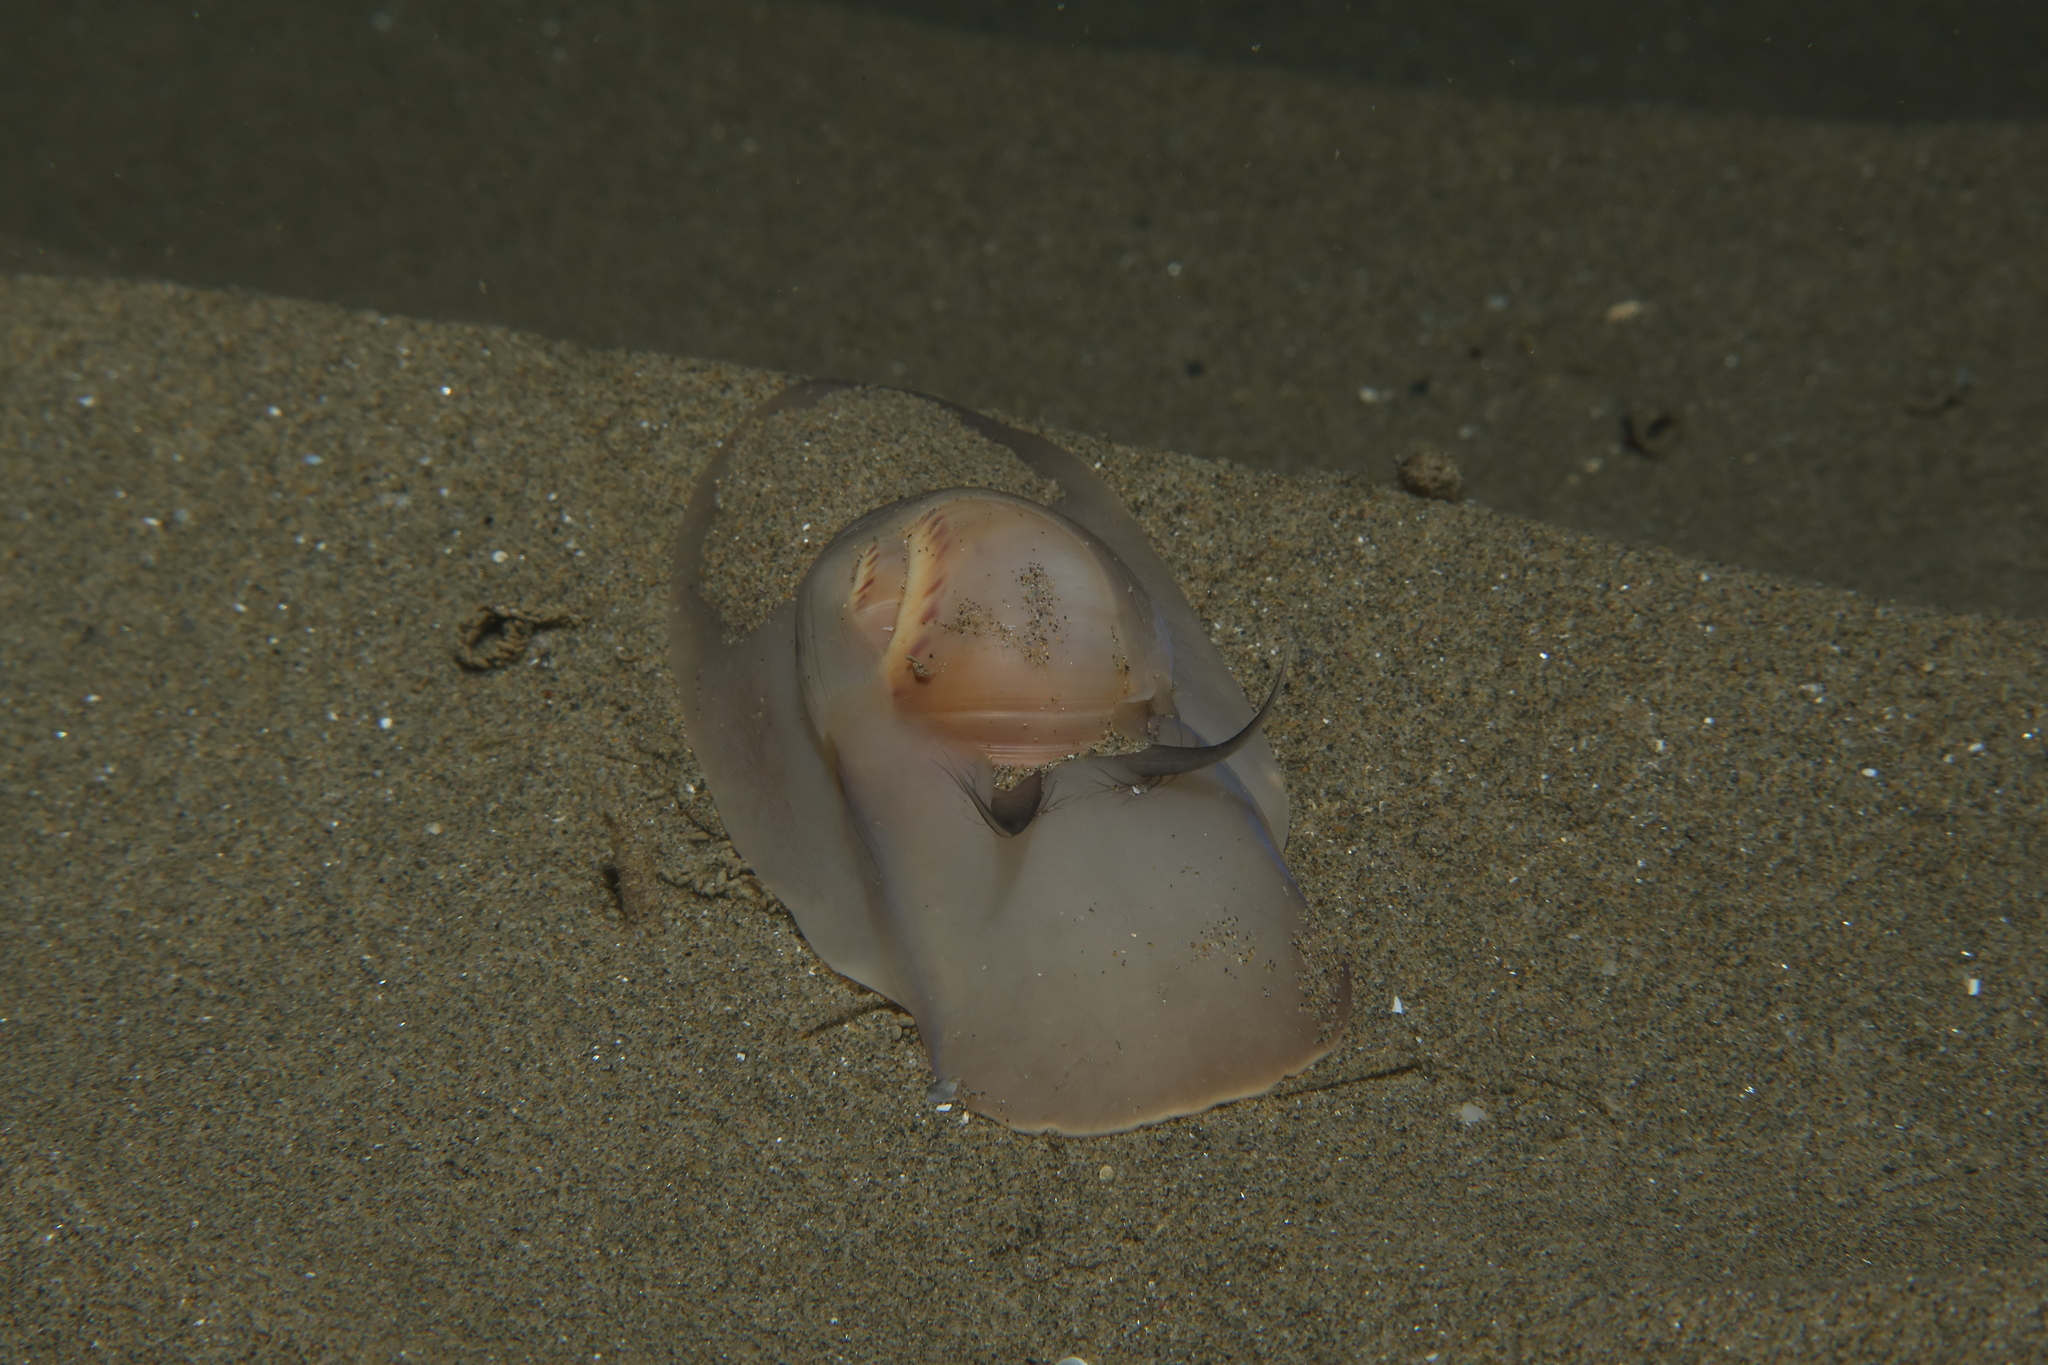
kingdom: Animalia
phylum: Mollusca
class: Gastropoda
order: Littorinimorpha
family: Naticidae
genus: Euspira
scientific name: Euspira catena
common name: Necklace shell
